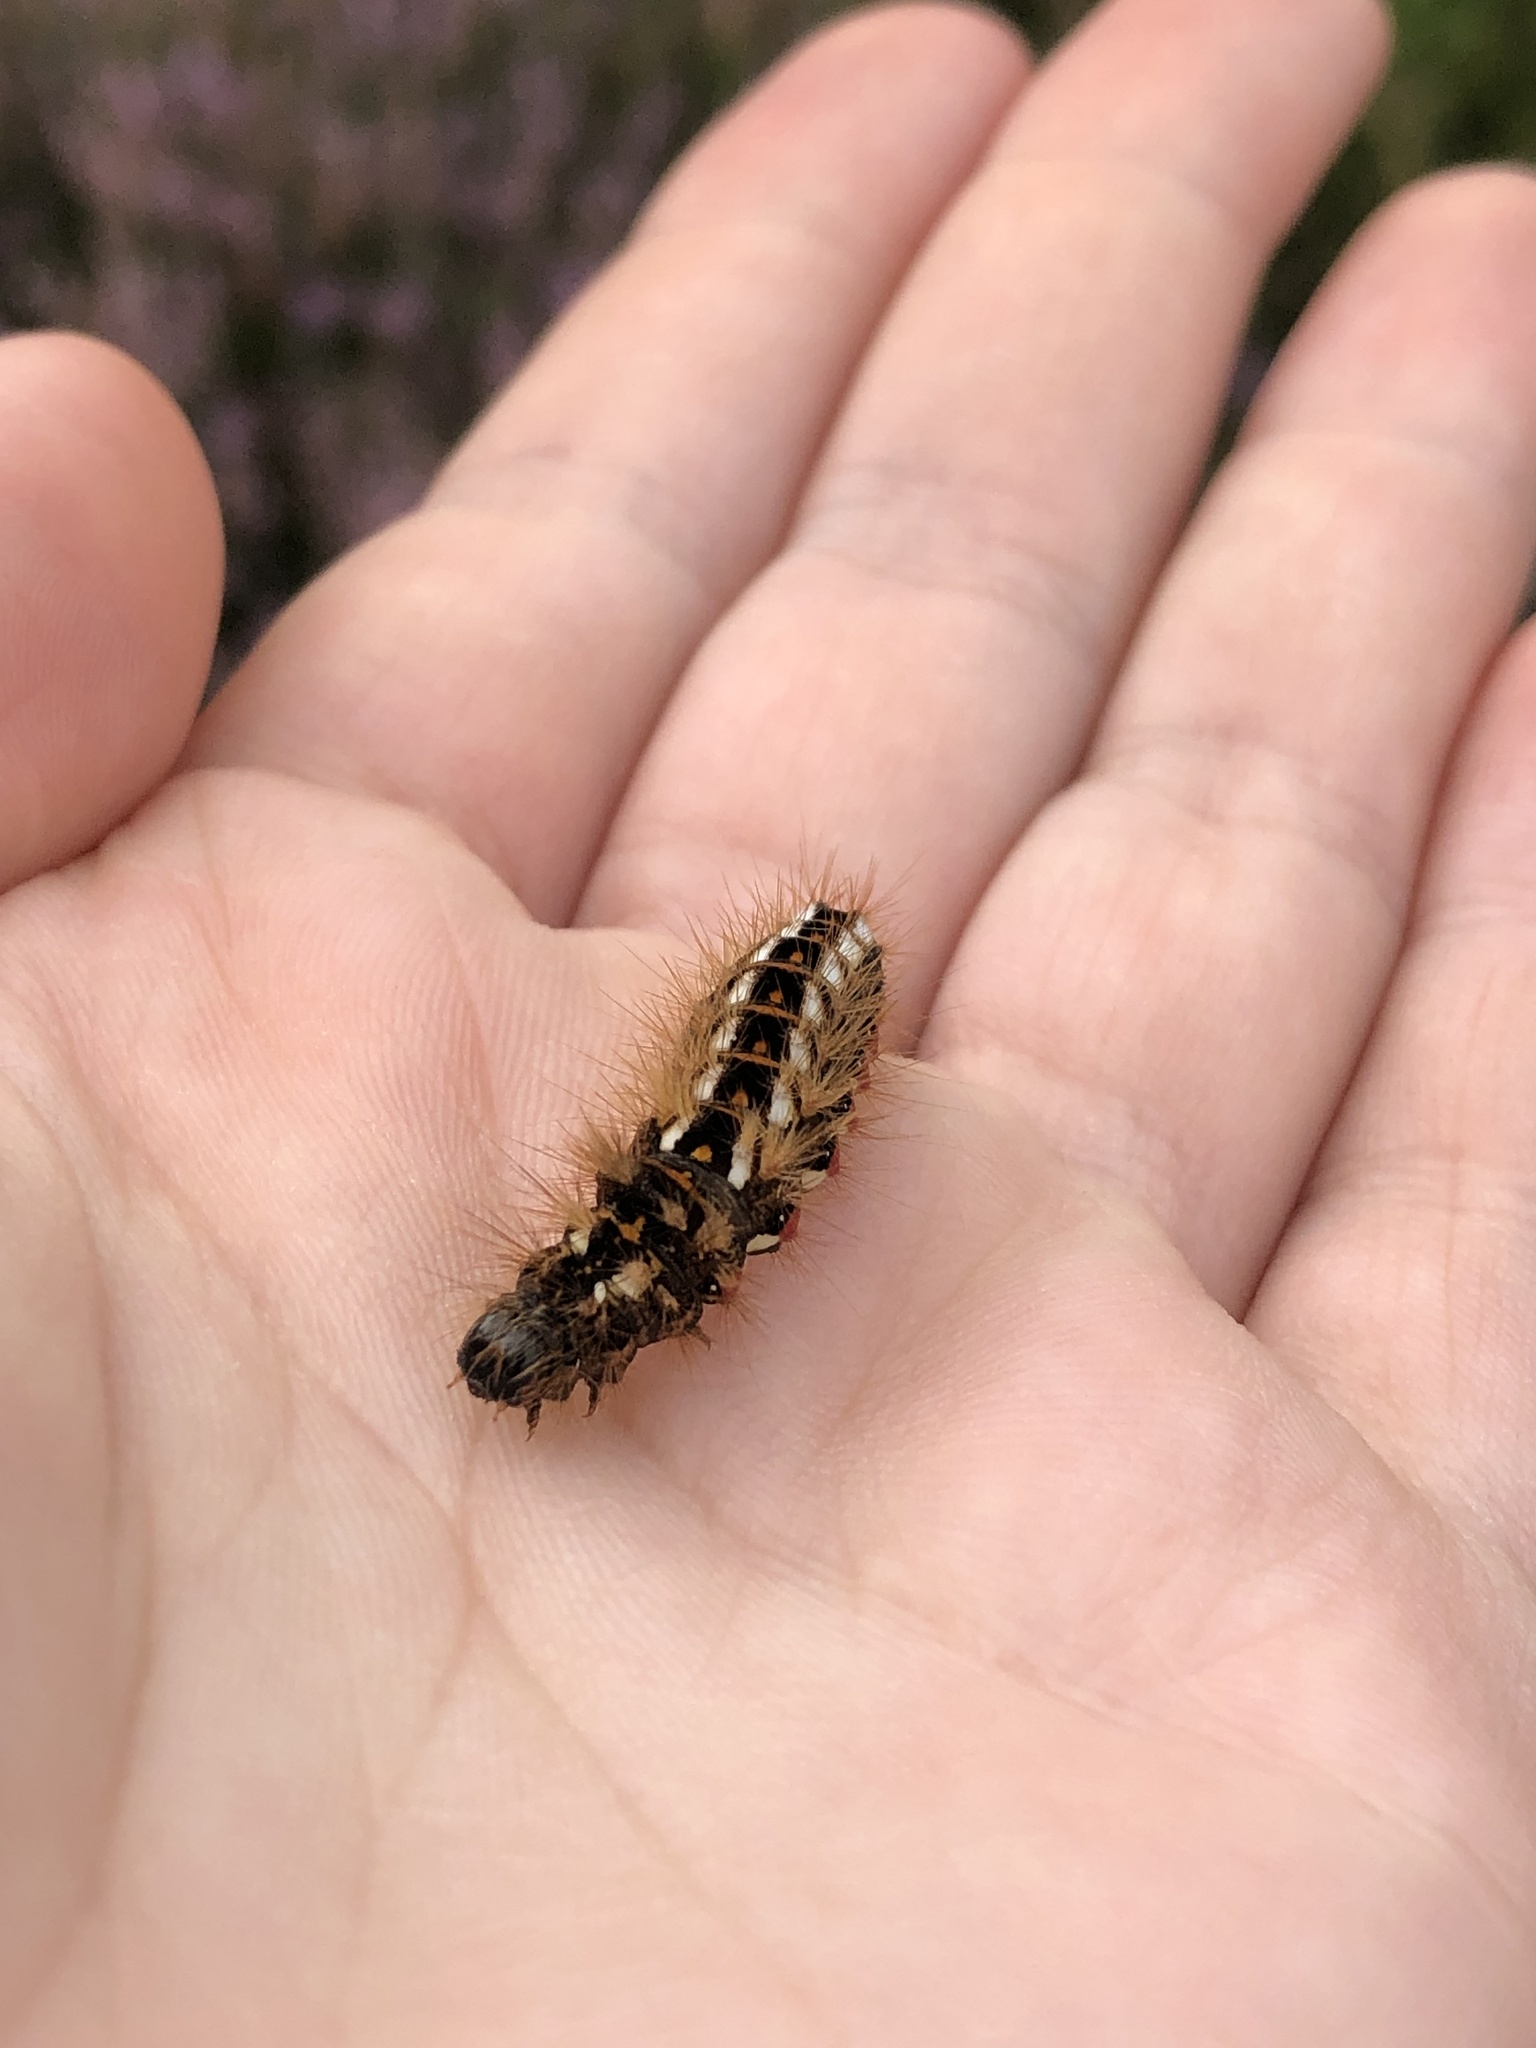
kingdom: Animalia
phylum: Arthropoda
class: Insecta
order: Lepidoptera
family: Noctuidae
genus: Acronicta
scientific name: Acronicta rumicis
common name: Knot grass
